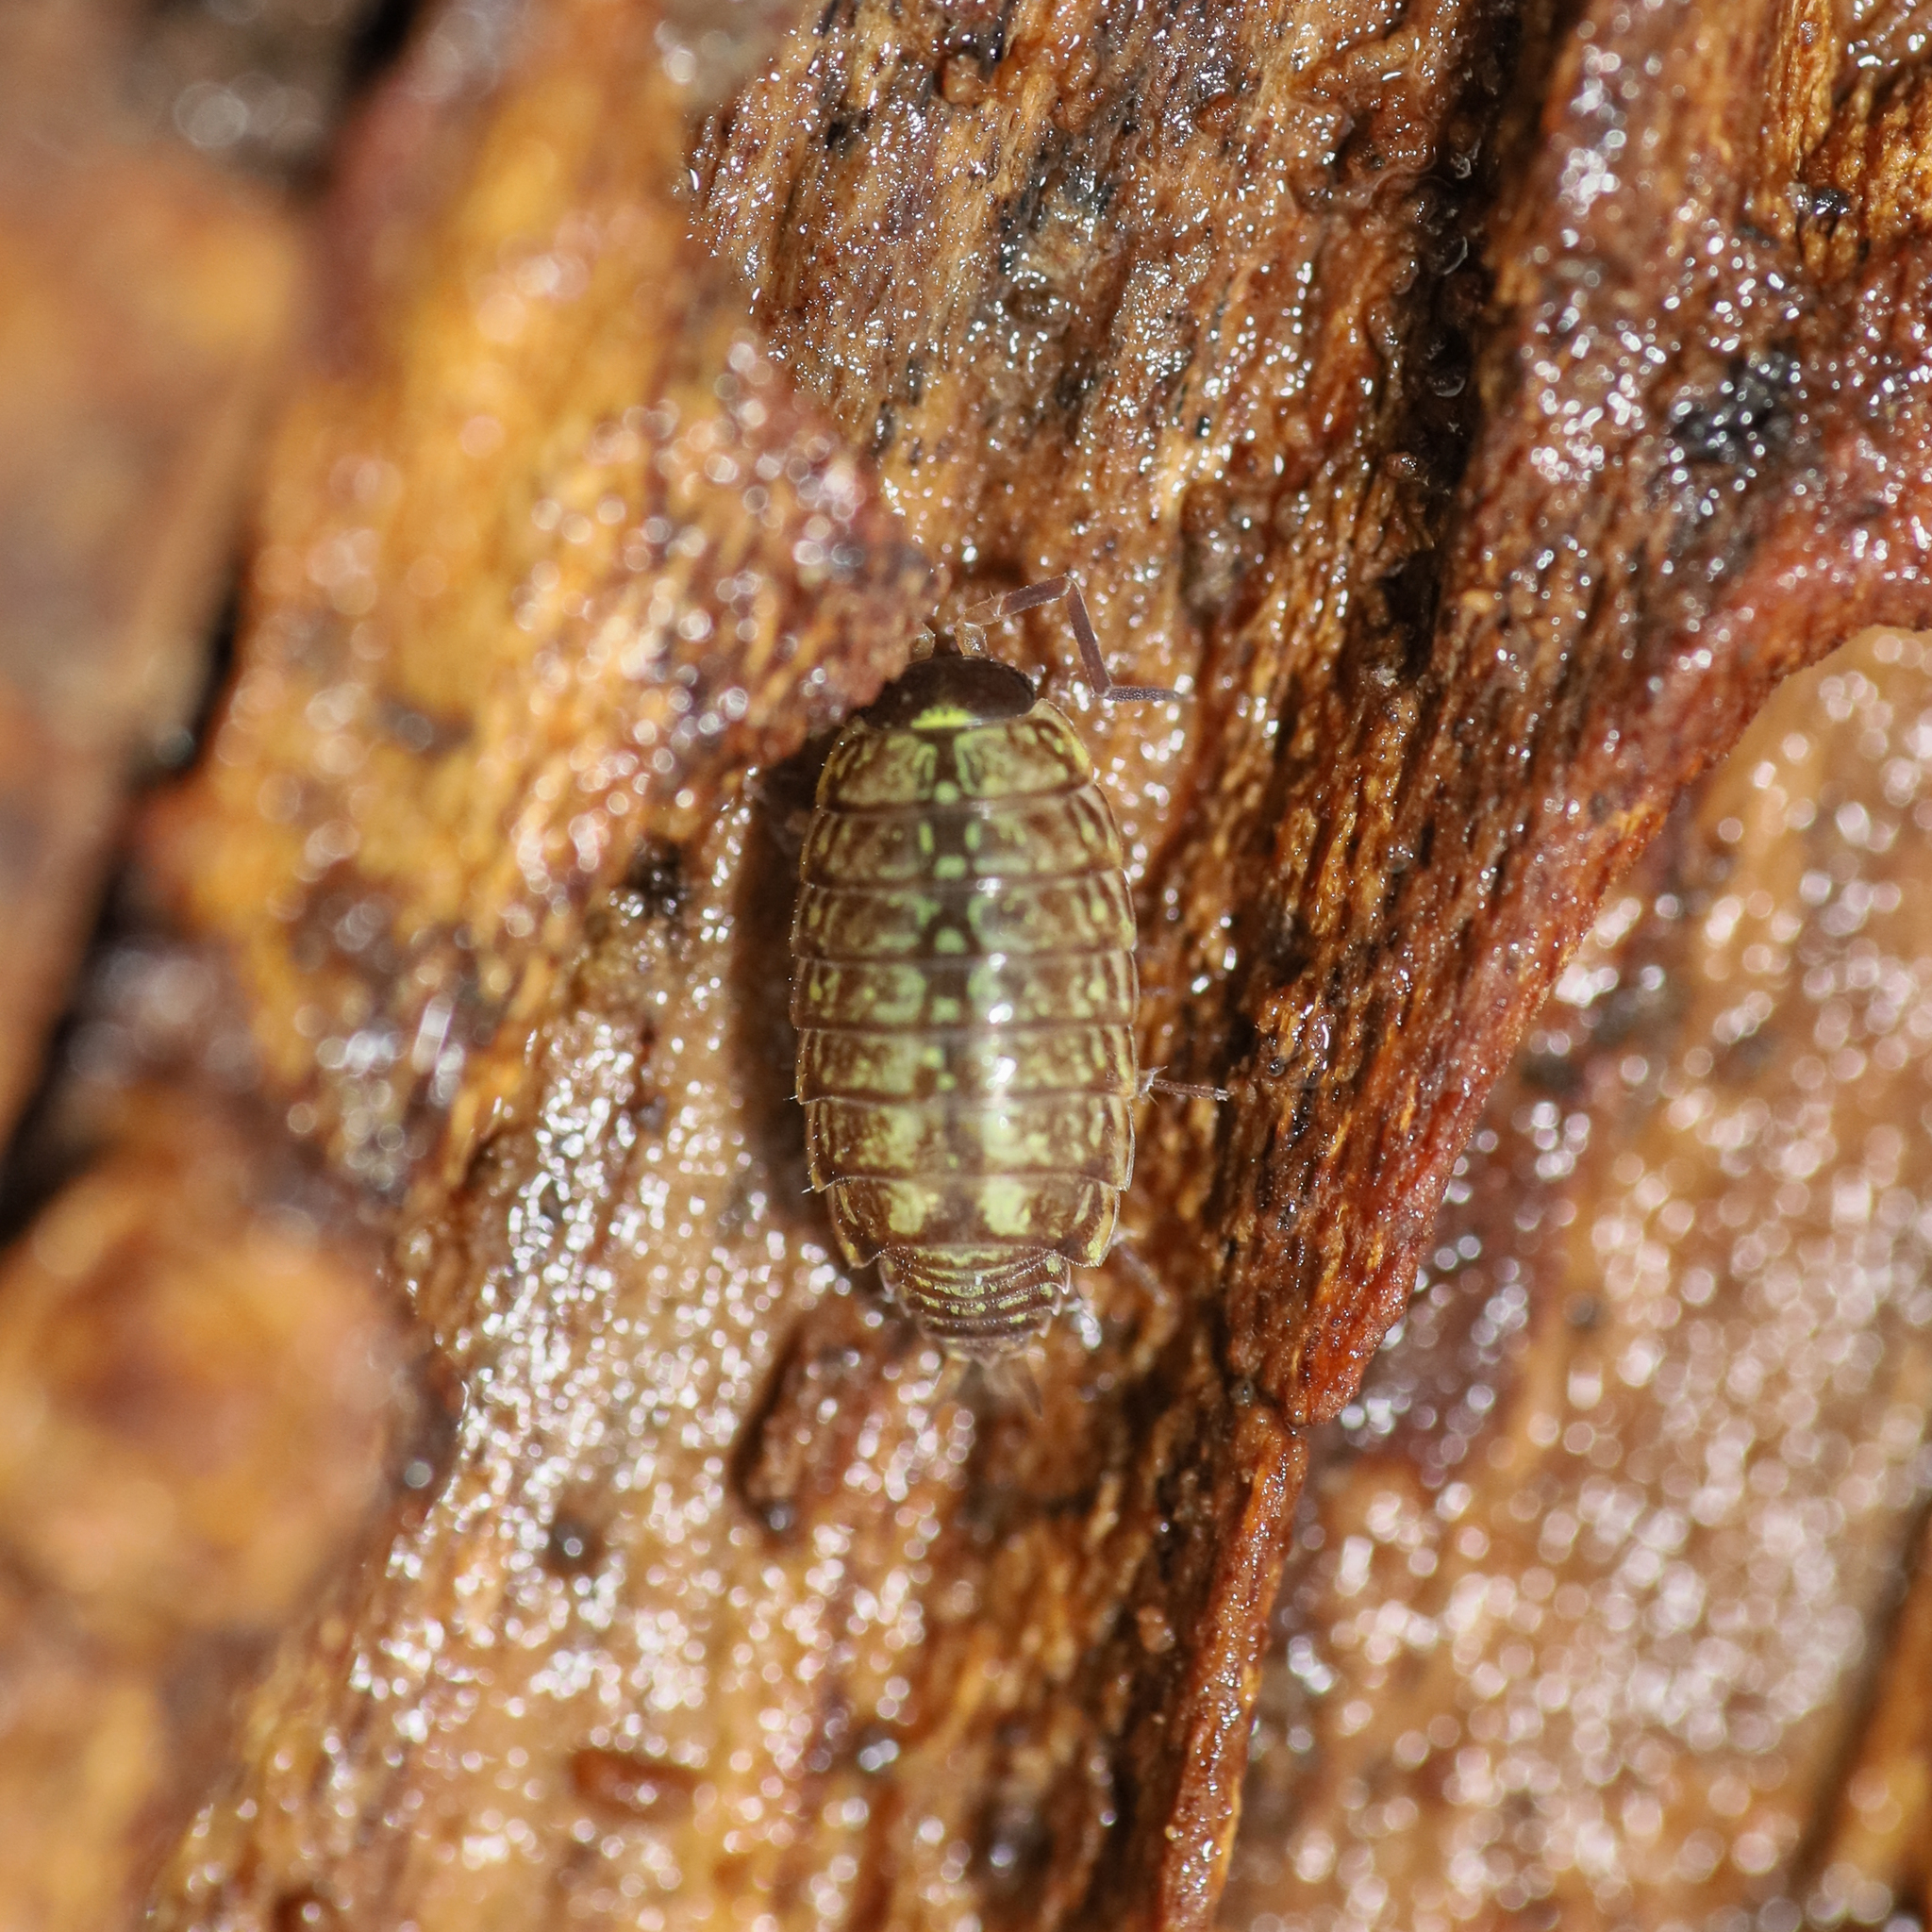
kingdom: Animalia
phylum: Arthropoda
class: Malacostraca
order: Isopoda
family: Philosciidae
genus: Philoscia
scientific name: Philoscia muscorum
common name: Common striped woodlouse
